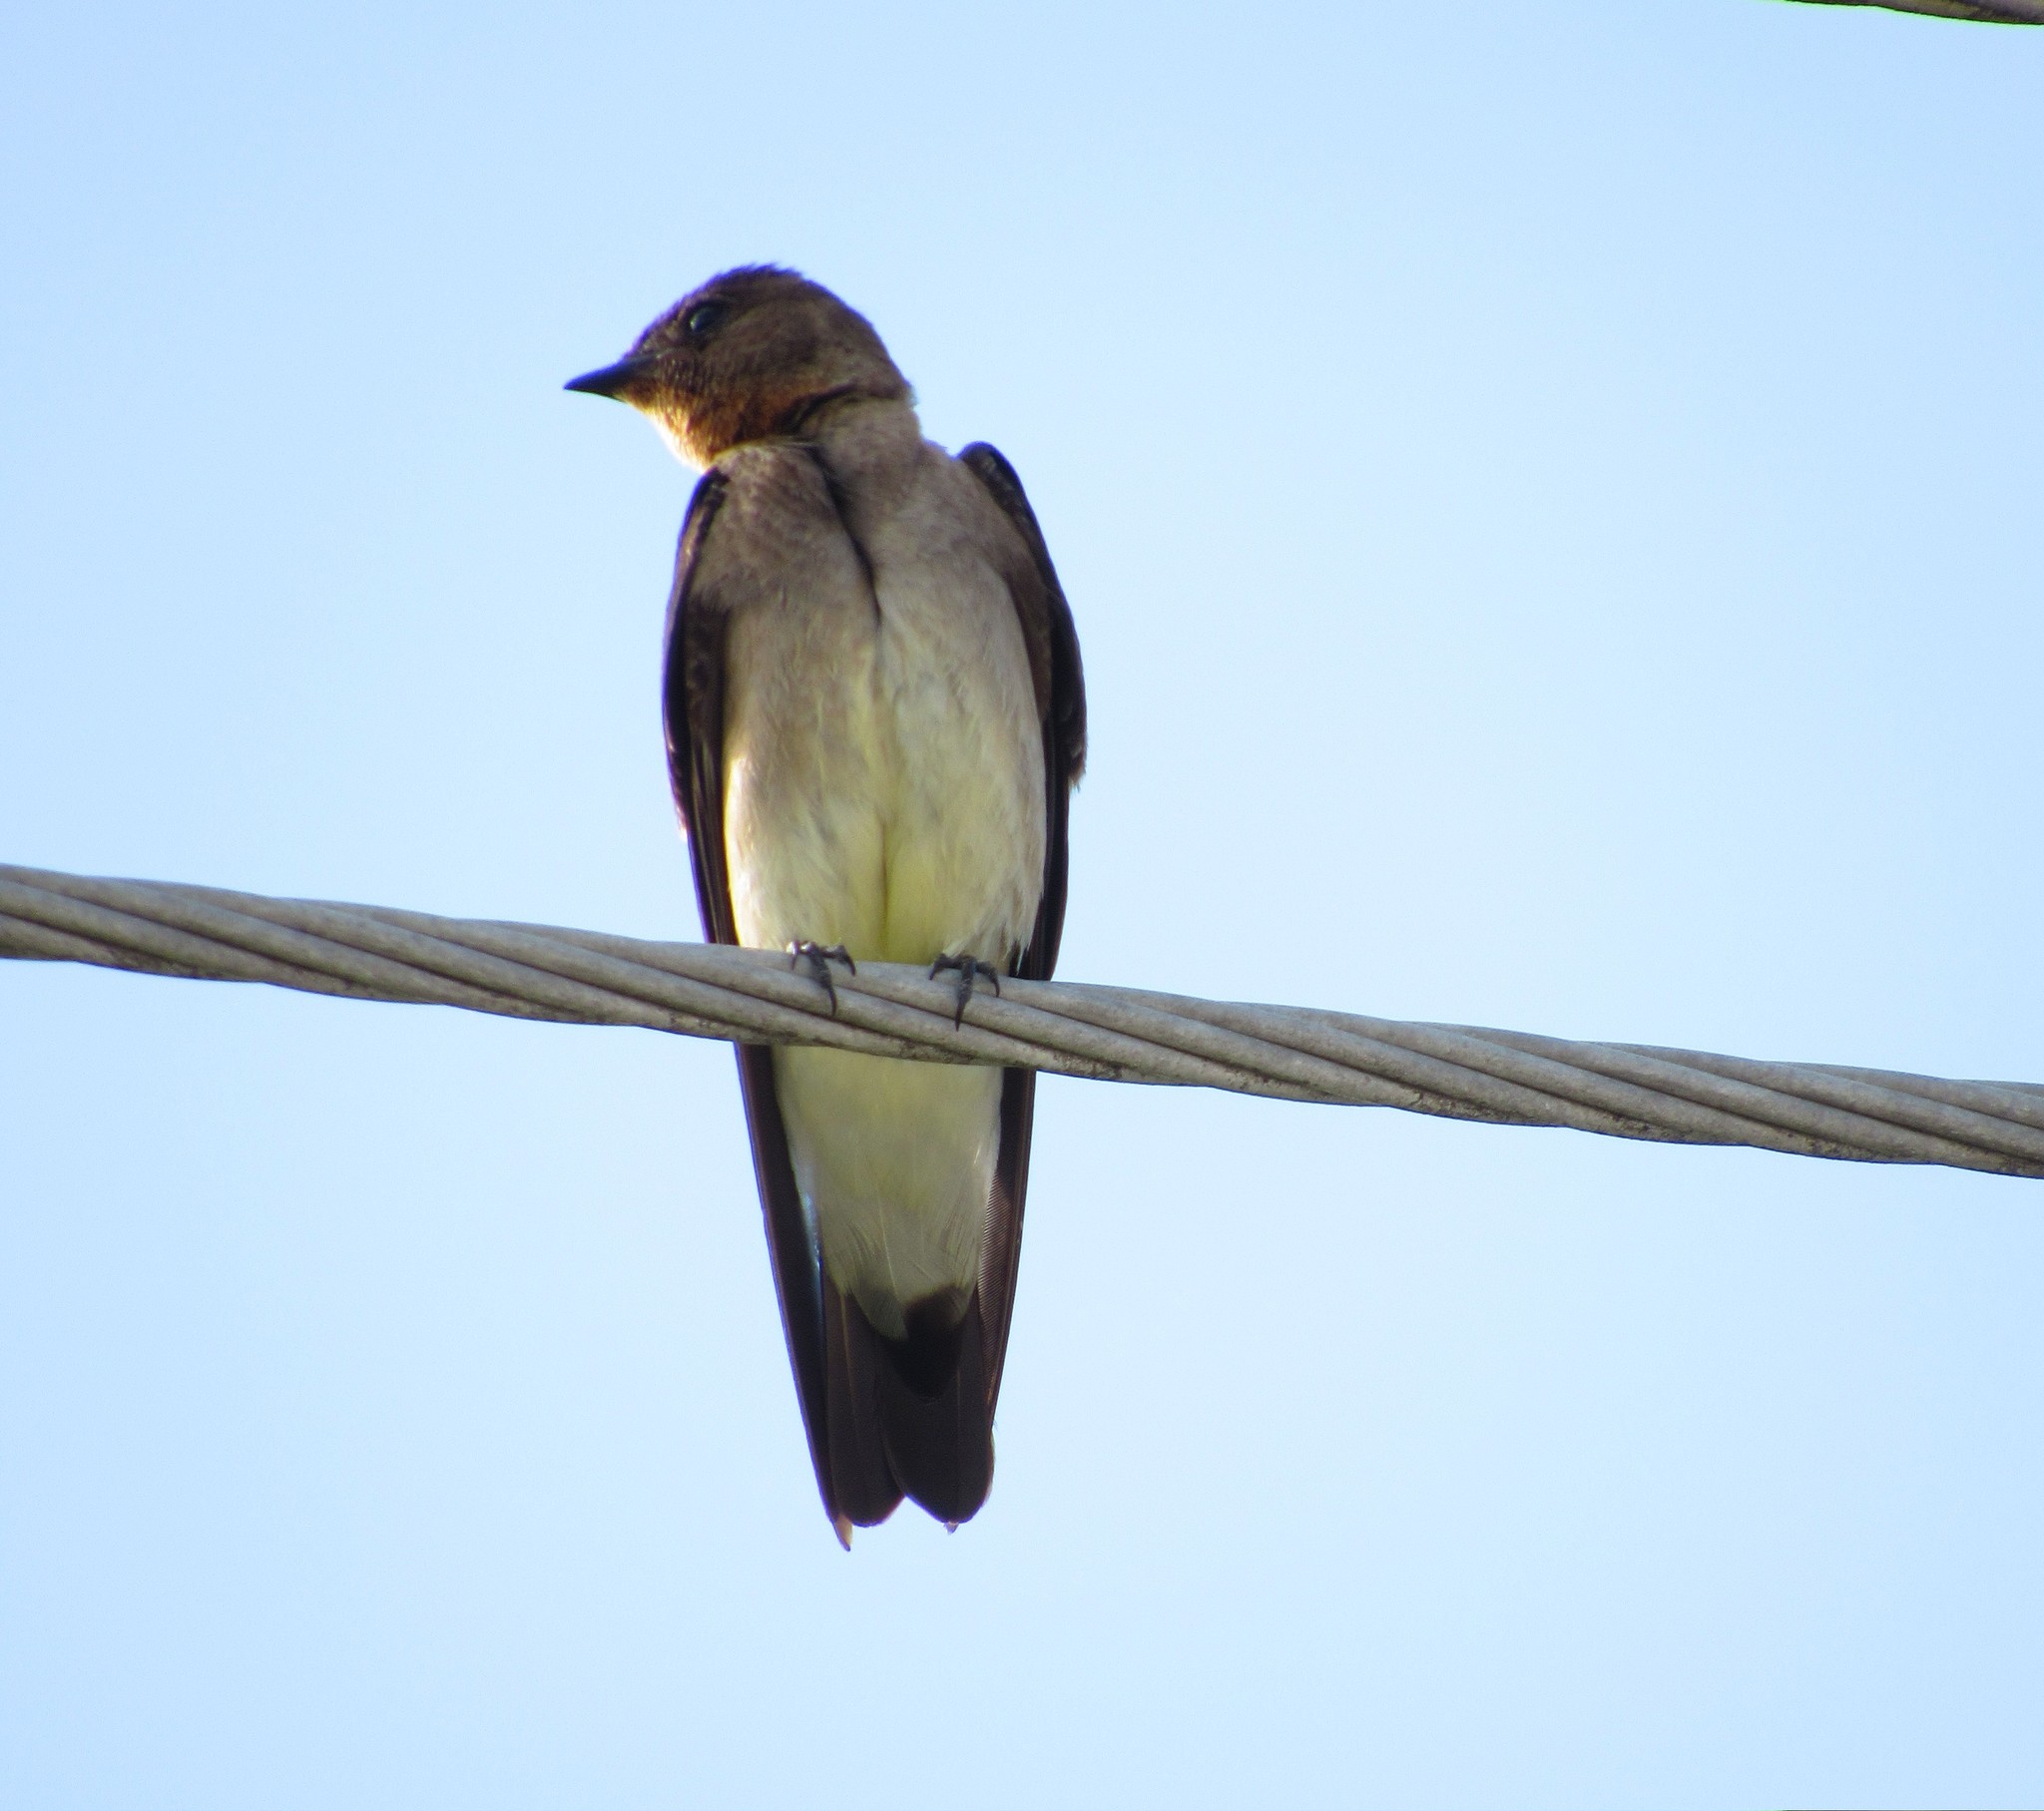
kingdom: Animalia
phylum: Chordata
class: Aves
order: Passeriformes
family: Hirundinidae
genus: Stelgidopteryx
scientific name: Stelgidopteryx ruficollis
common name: Southern rough-winged swallow
